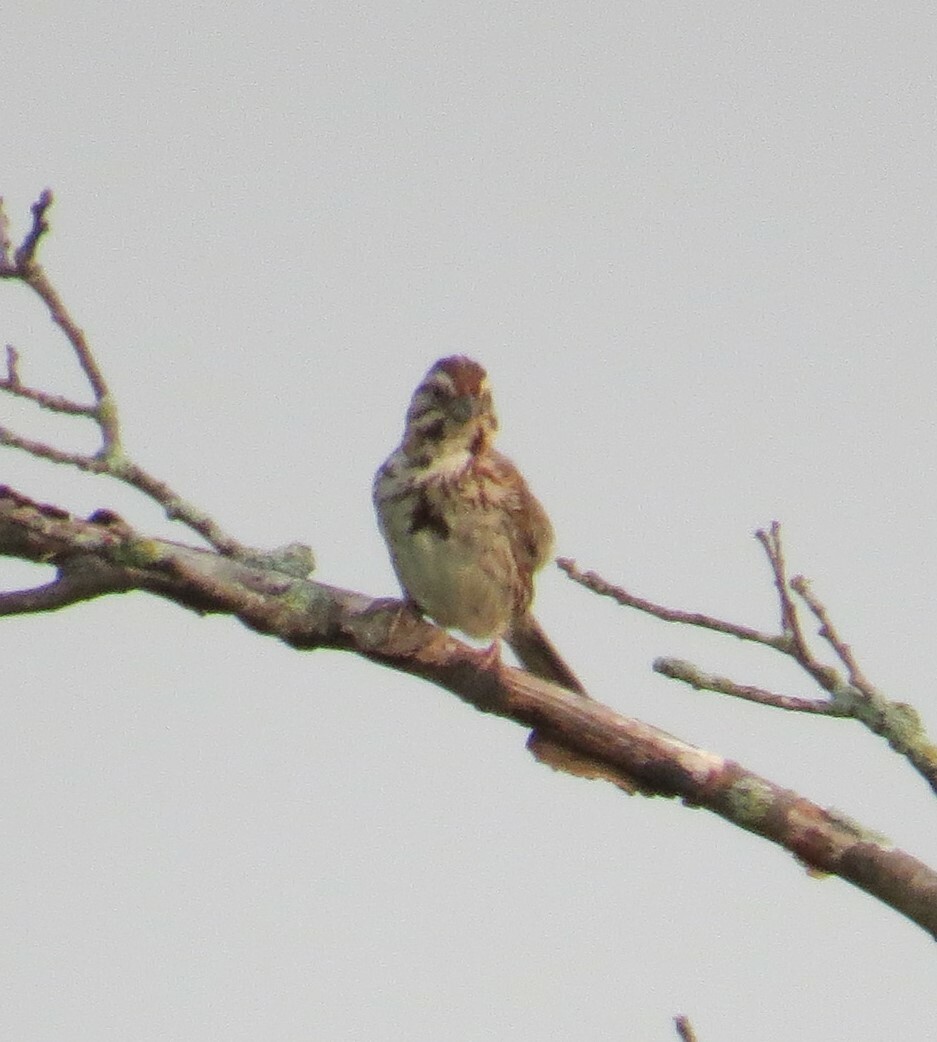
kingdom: Animalia
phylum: Chordata
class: Aves
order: Passeriformes
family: Passerellidae
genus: Melospiza
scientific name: Melospiza melodia
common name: Song sparrow
